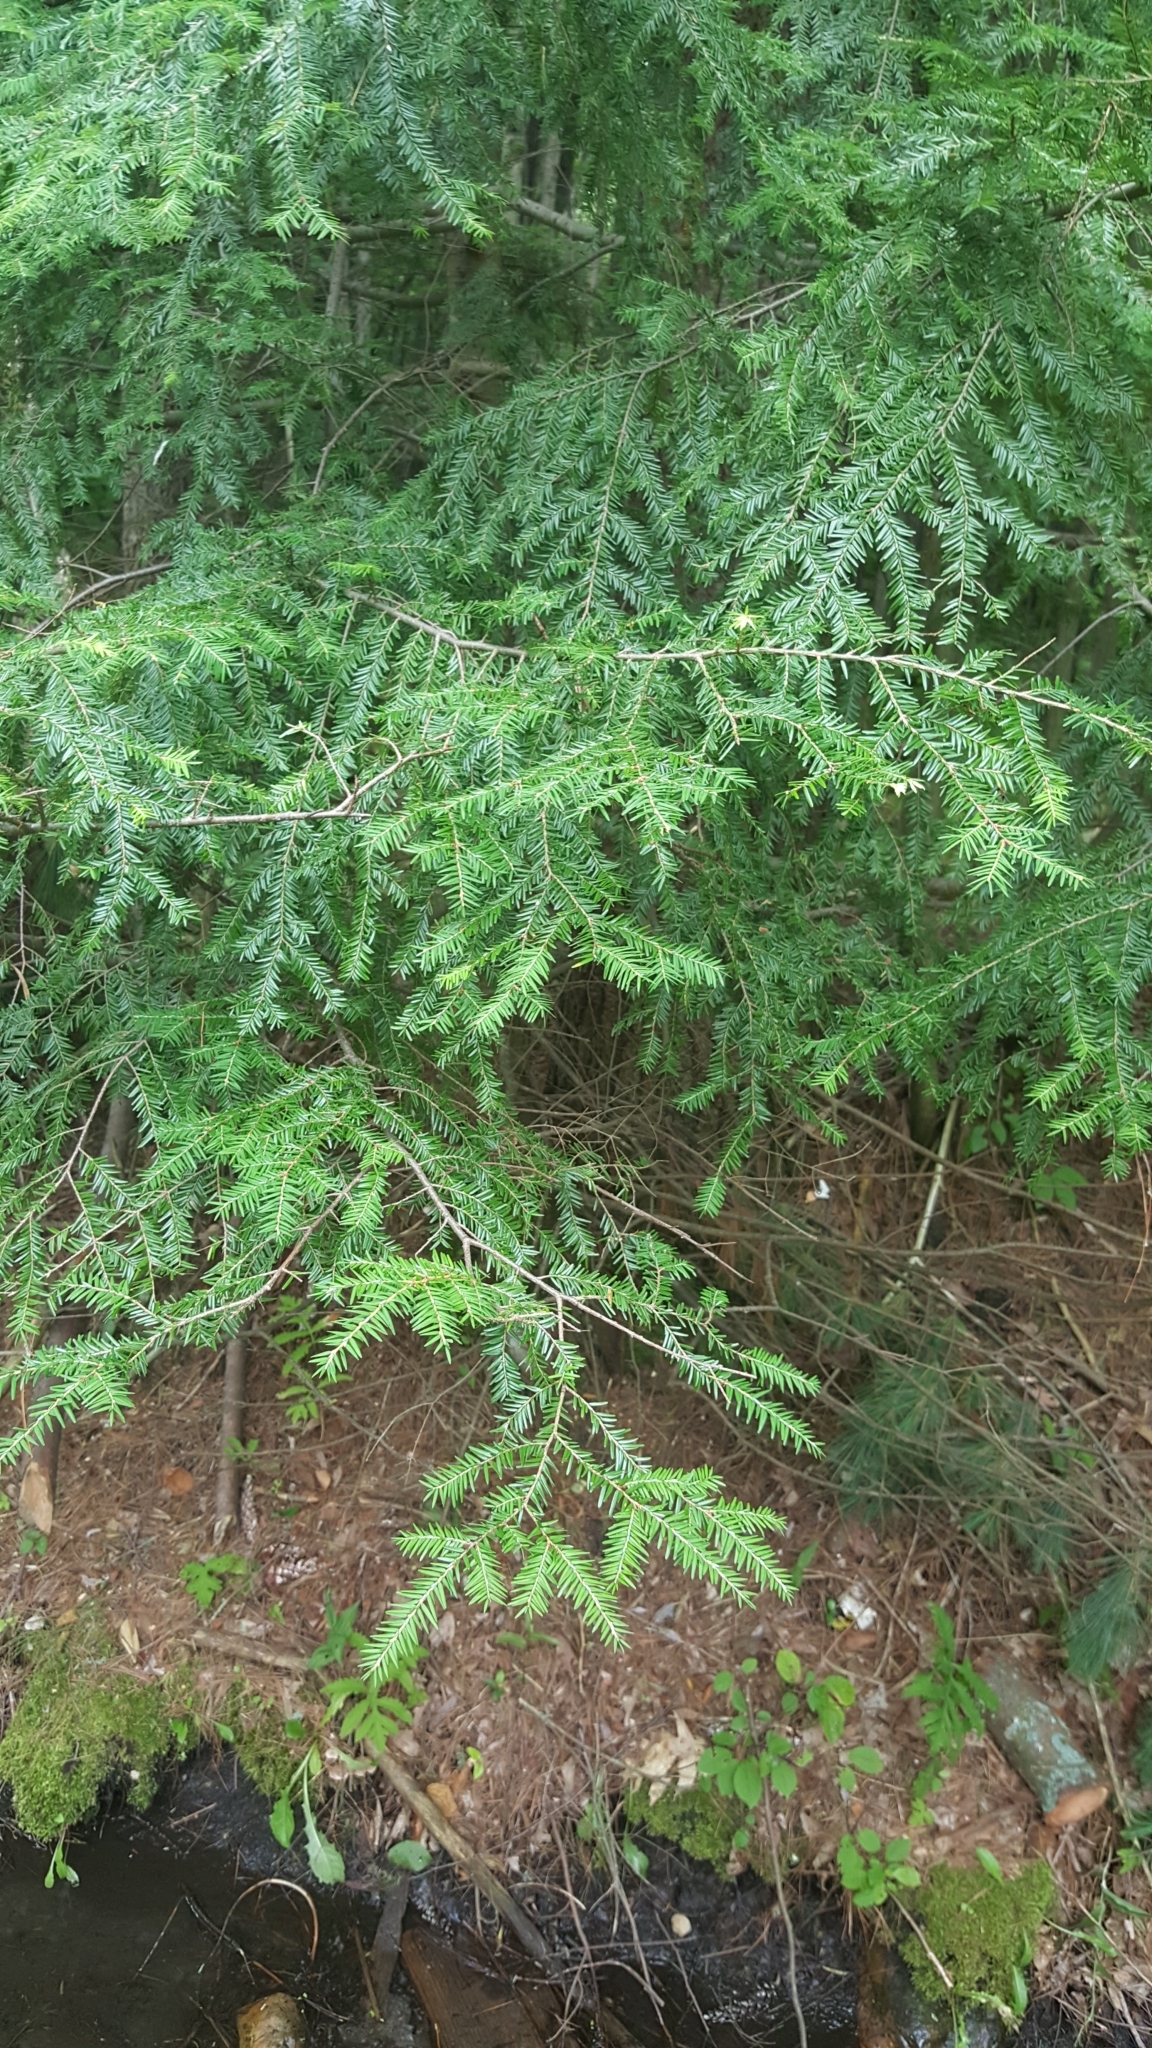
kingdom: Plantae
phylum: Tracheophyta
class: Pinopsida
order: Pinales
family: Pinaceae
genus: Tsuga
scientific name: Tsuga canadensis
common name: Eastern hemlock
